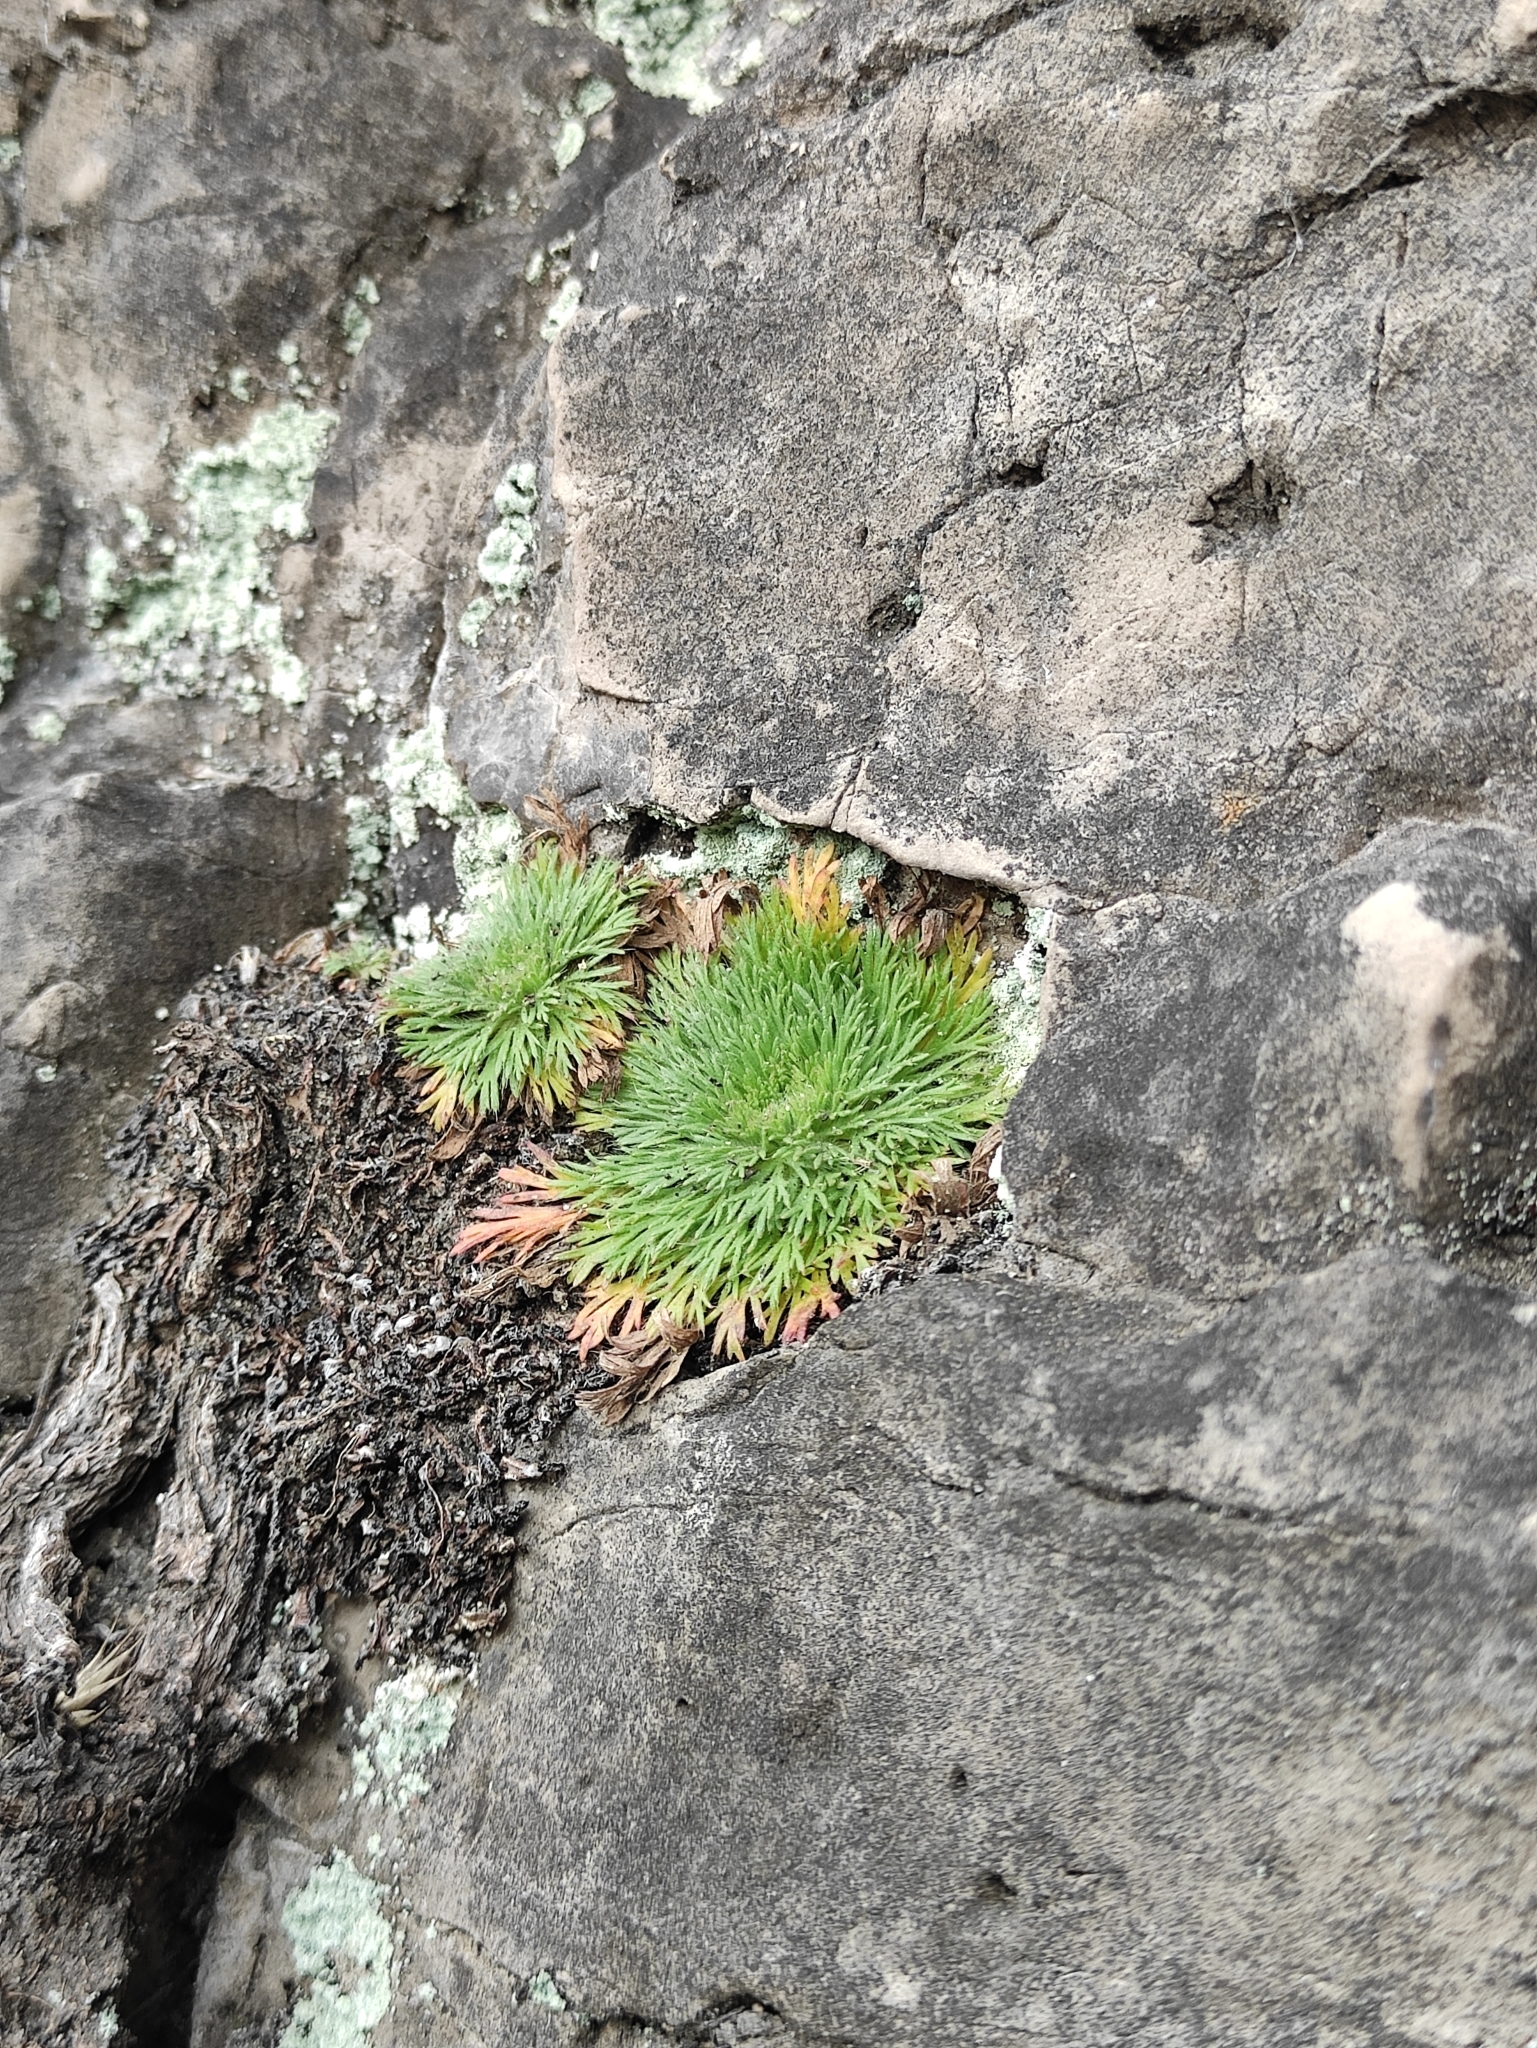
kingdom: Plantae
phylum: Tracheophyta
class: Magnoliopsida
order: Rosales
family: Rosaceae
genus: Chamaerhodos
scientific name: Chamaerhodos erecta
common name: American chamaerhodos
